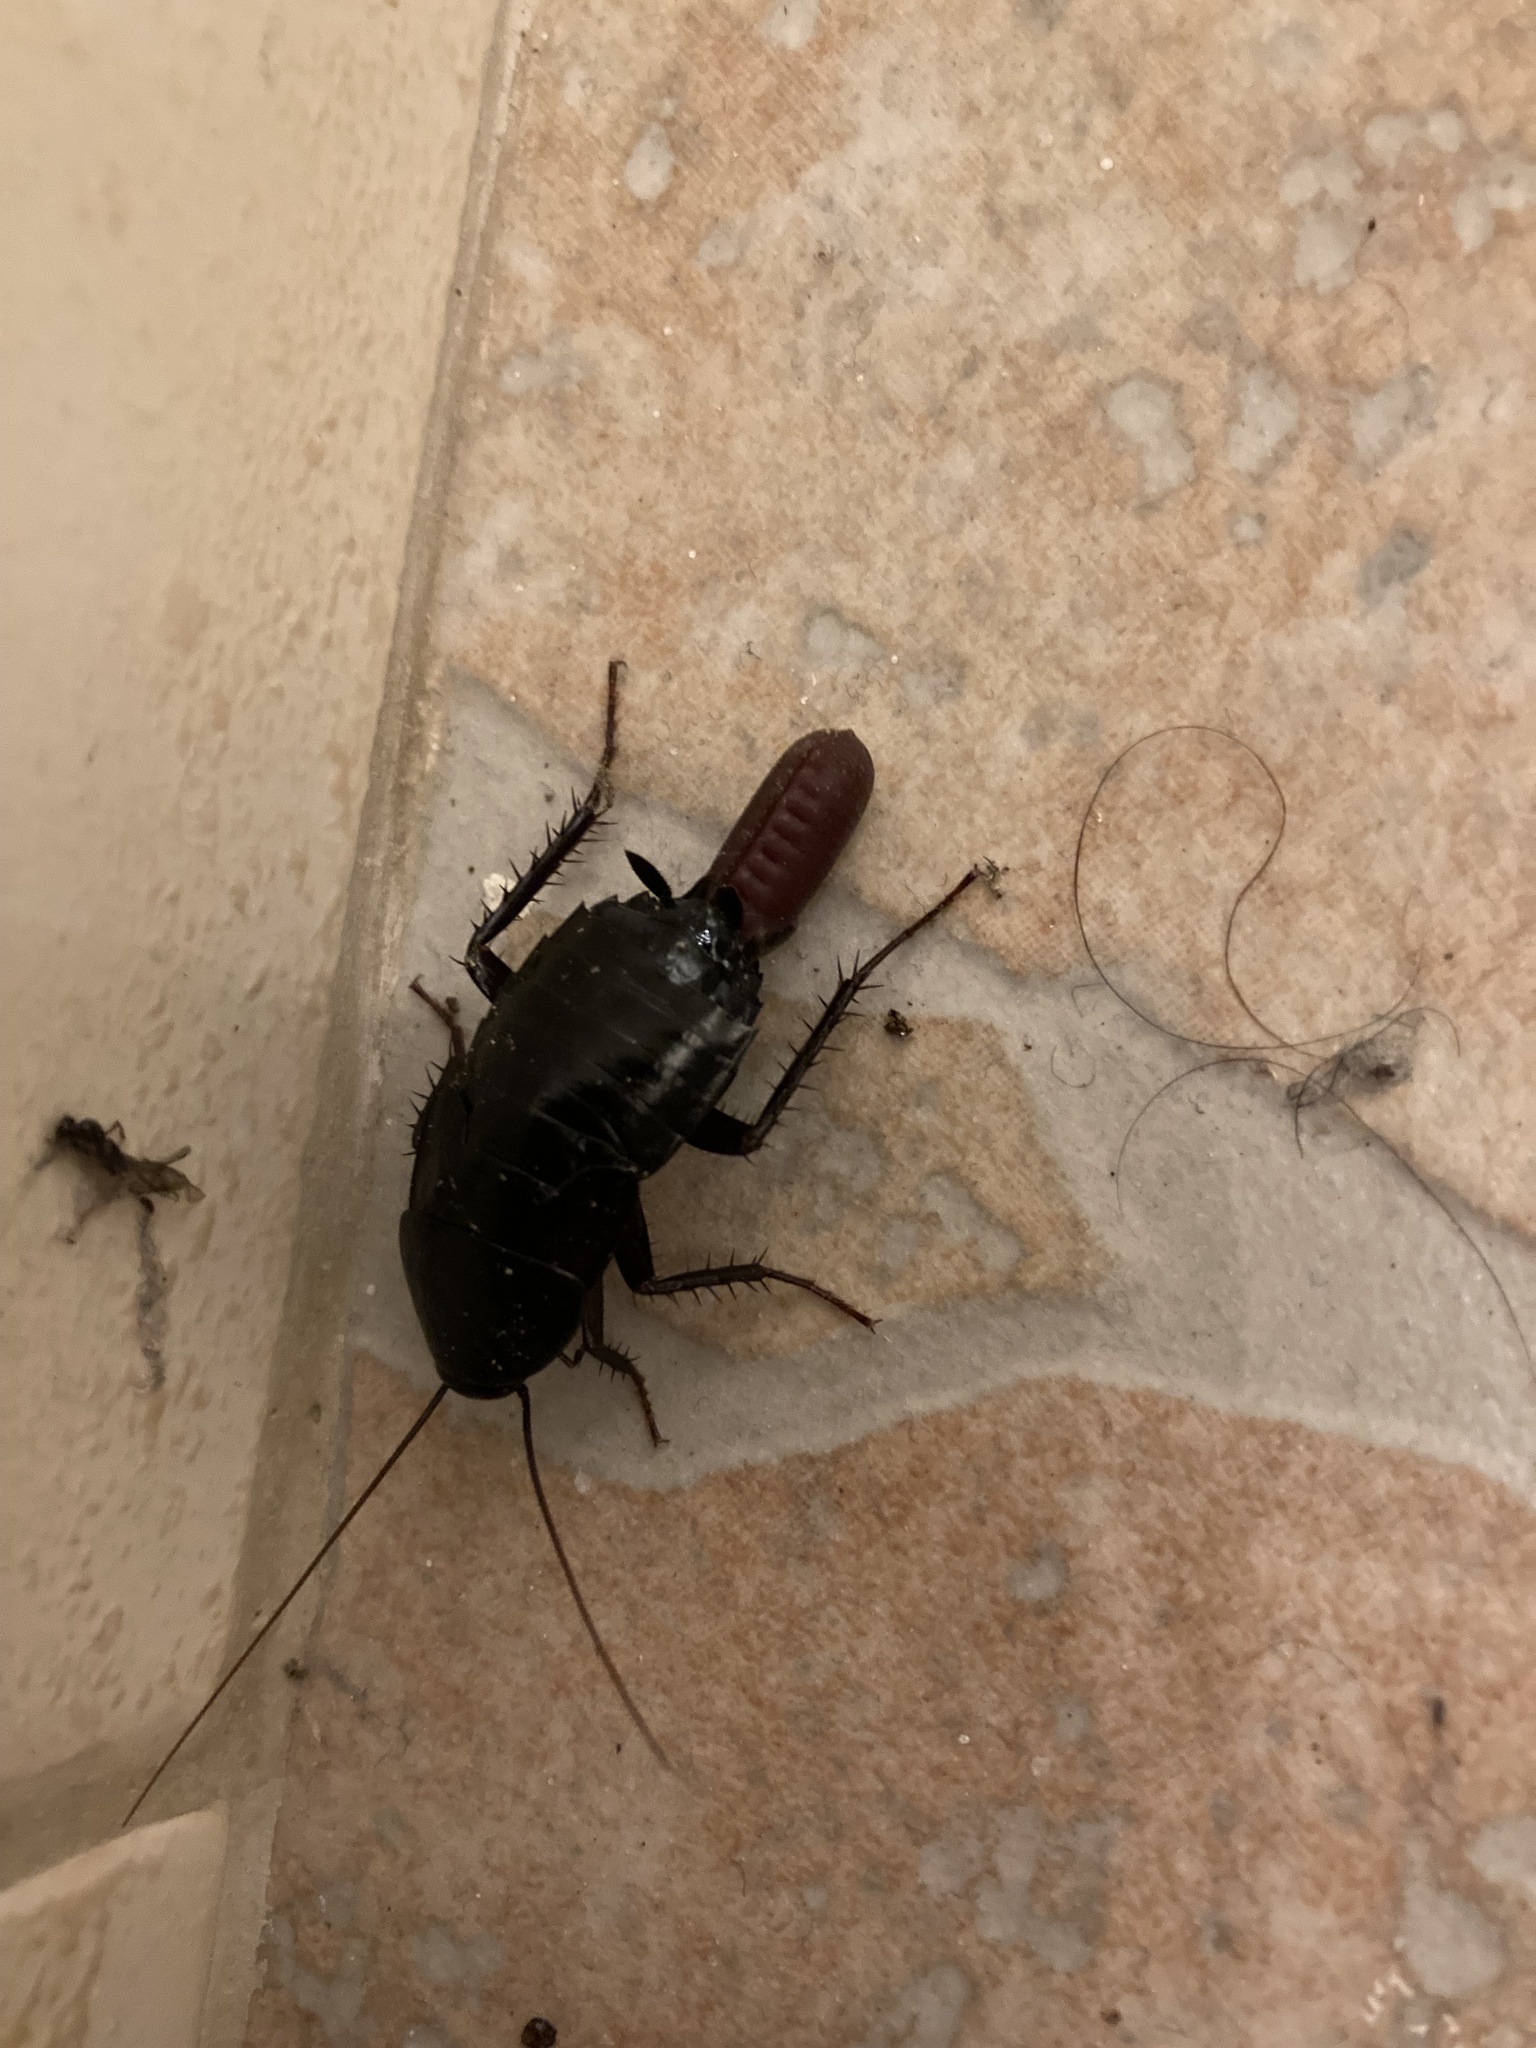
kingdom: Animalia
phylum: Arthropoda
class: Insecta
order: Blattodea
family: Blattidae
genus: Blatta
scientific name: Blatta orientalis
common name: Oriental cockroach
